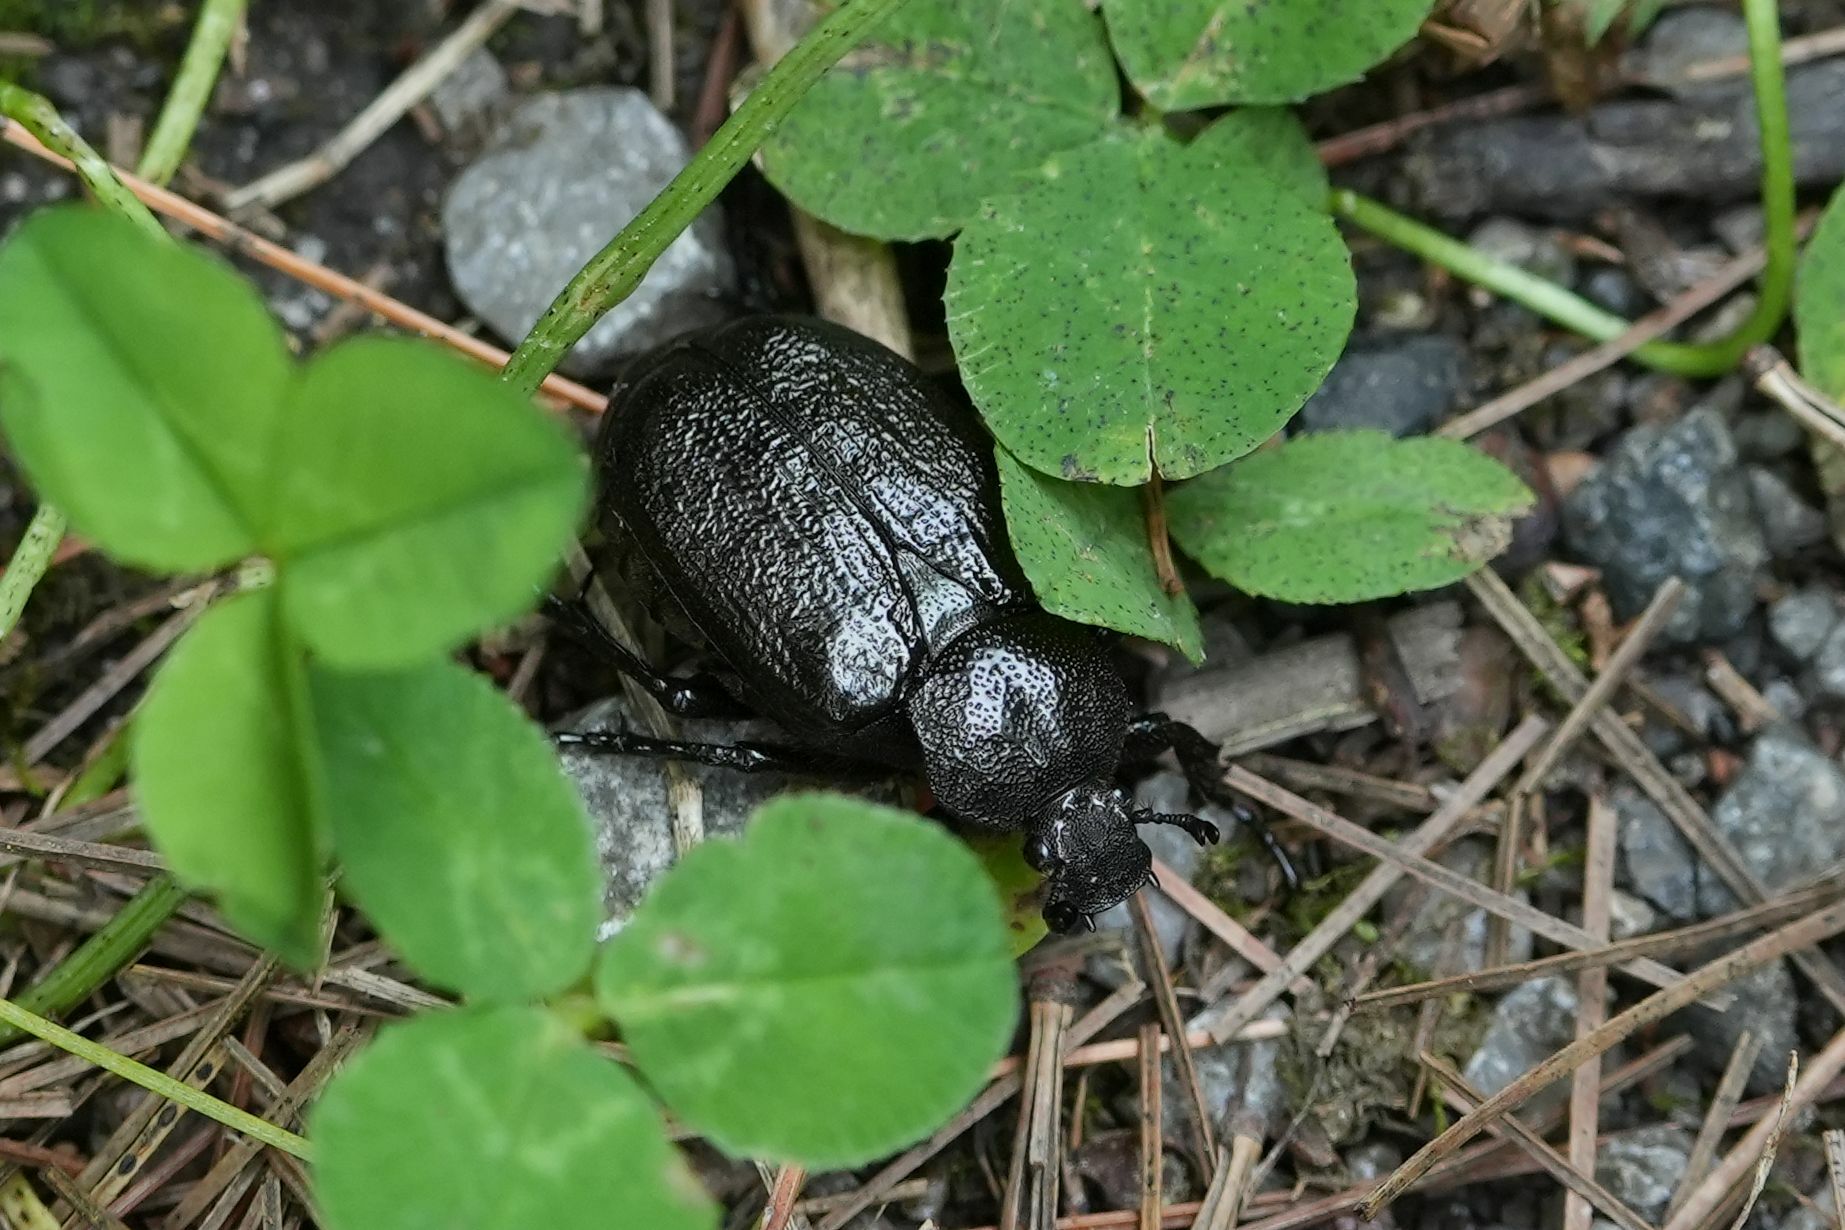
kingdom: Animalia
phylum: Arthropoda
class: Insecta
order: Coleoptera
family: Scarabaeidae
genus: Osmoderma
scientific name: Osmoderma scabra
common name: Rough hermit beetle
